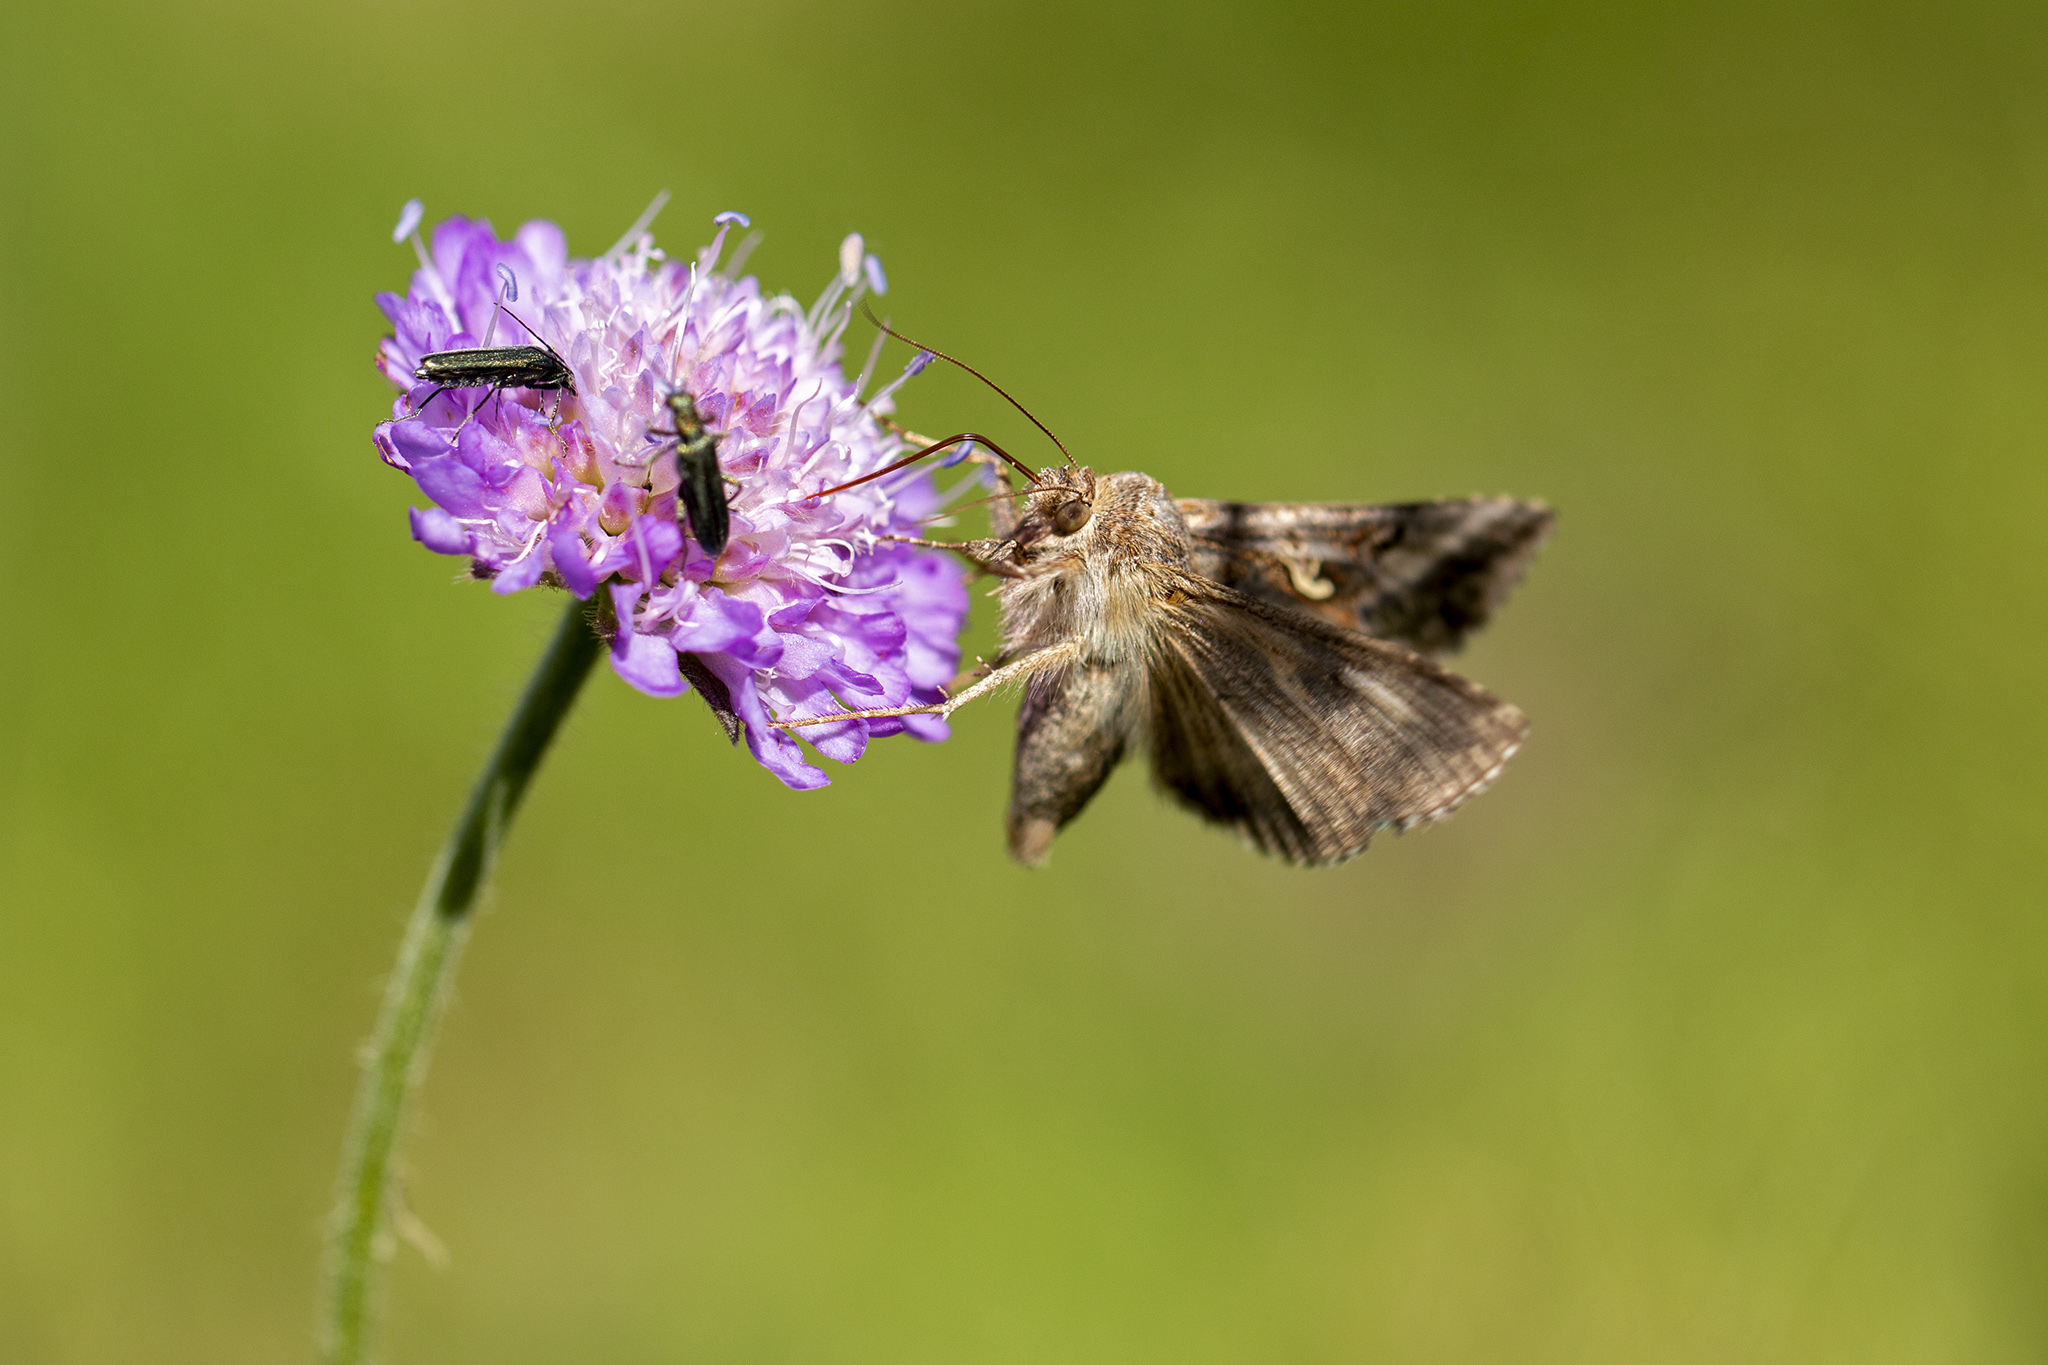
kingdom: Animalia
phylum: Arthropoda
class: Insecta
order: Lepidoptera
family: Noctuidae
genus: Autographa
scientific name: Autographa gamma
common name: Silver y
